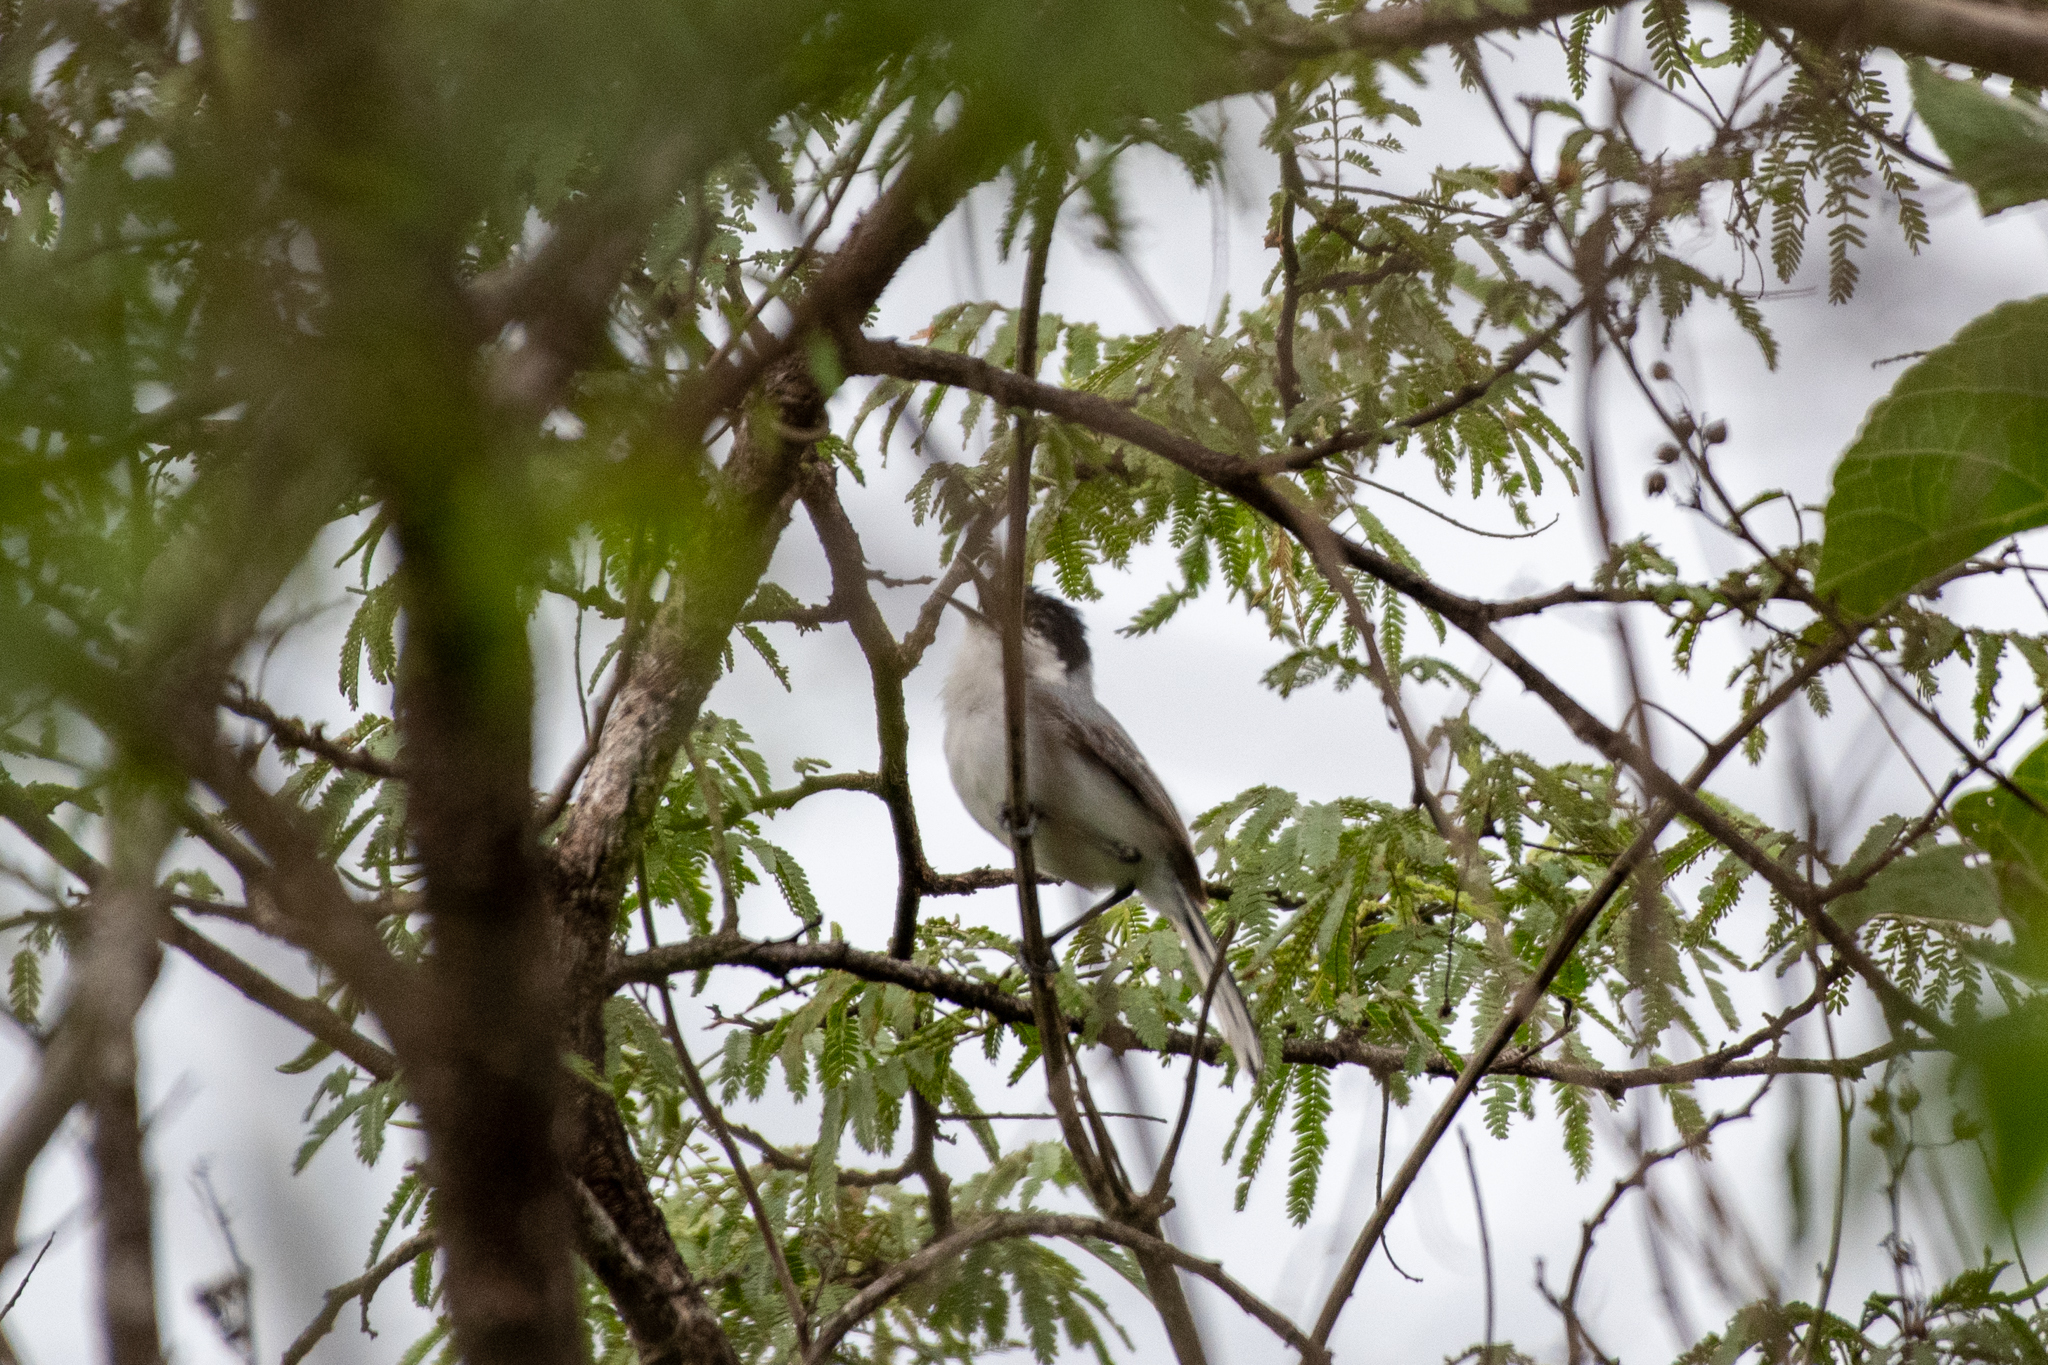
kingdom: Animalia
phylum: Chordata
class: Aves
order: Passeriformes
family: Polioptilidae
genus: Polioptila
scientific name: Polioptila albiloris
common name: White-lored gnatcatcher
